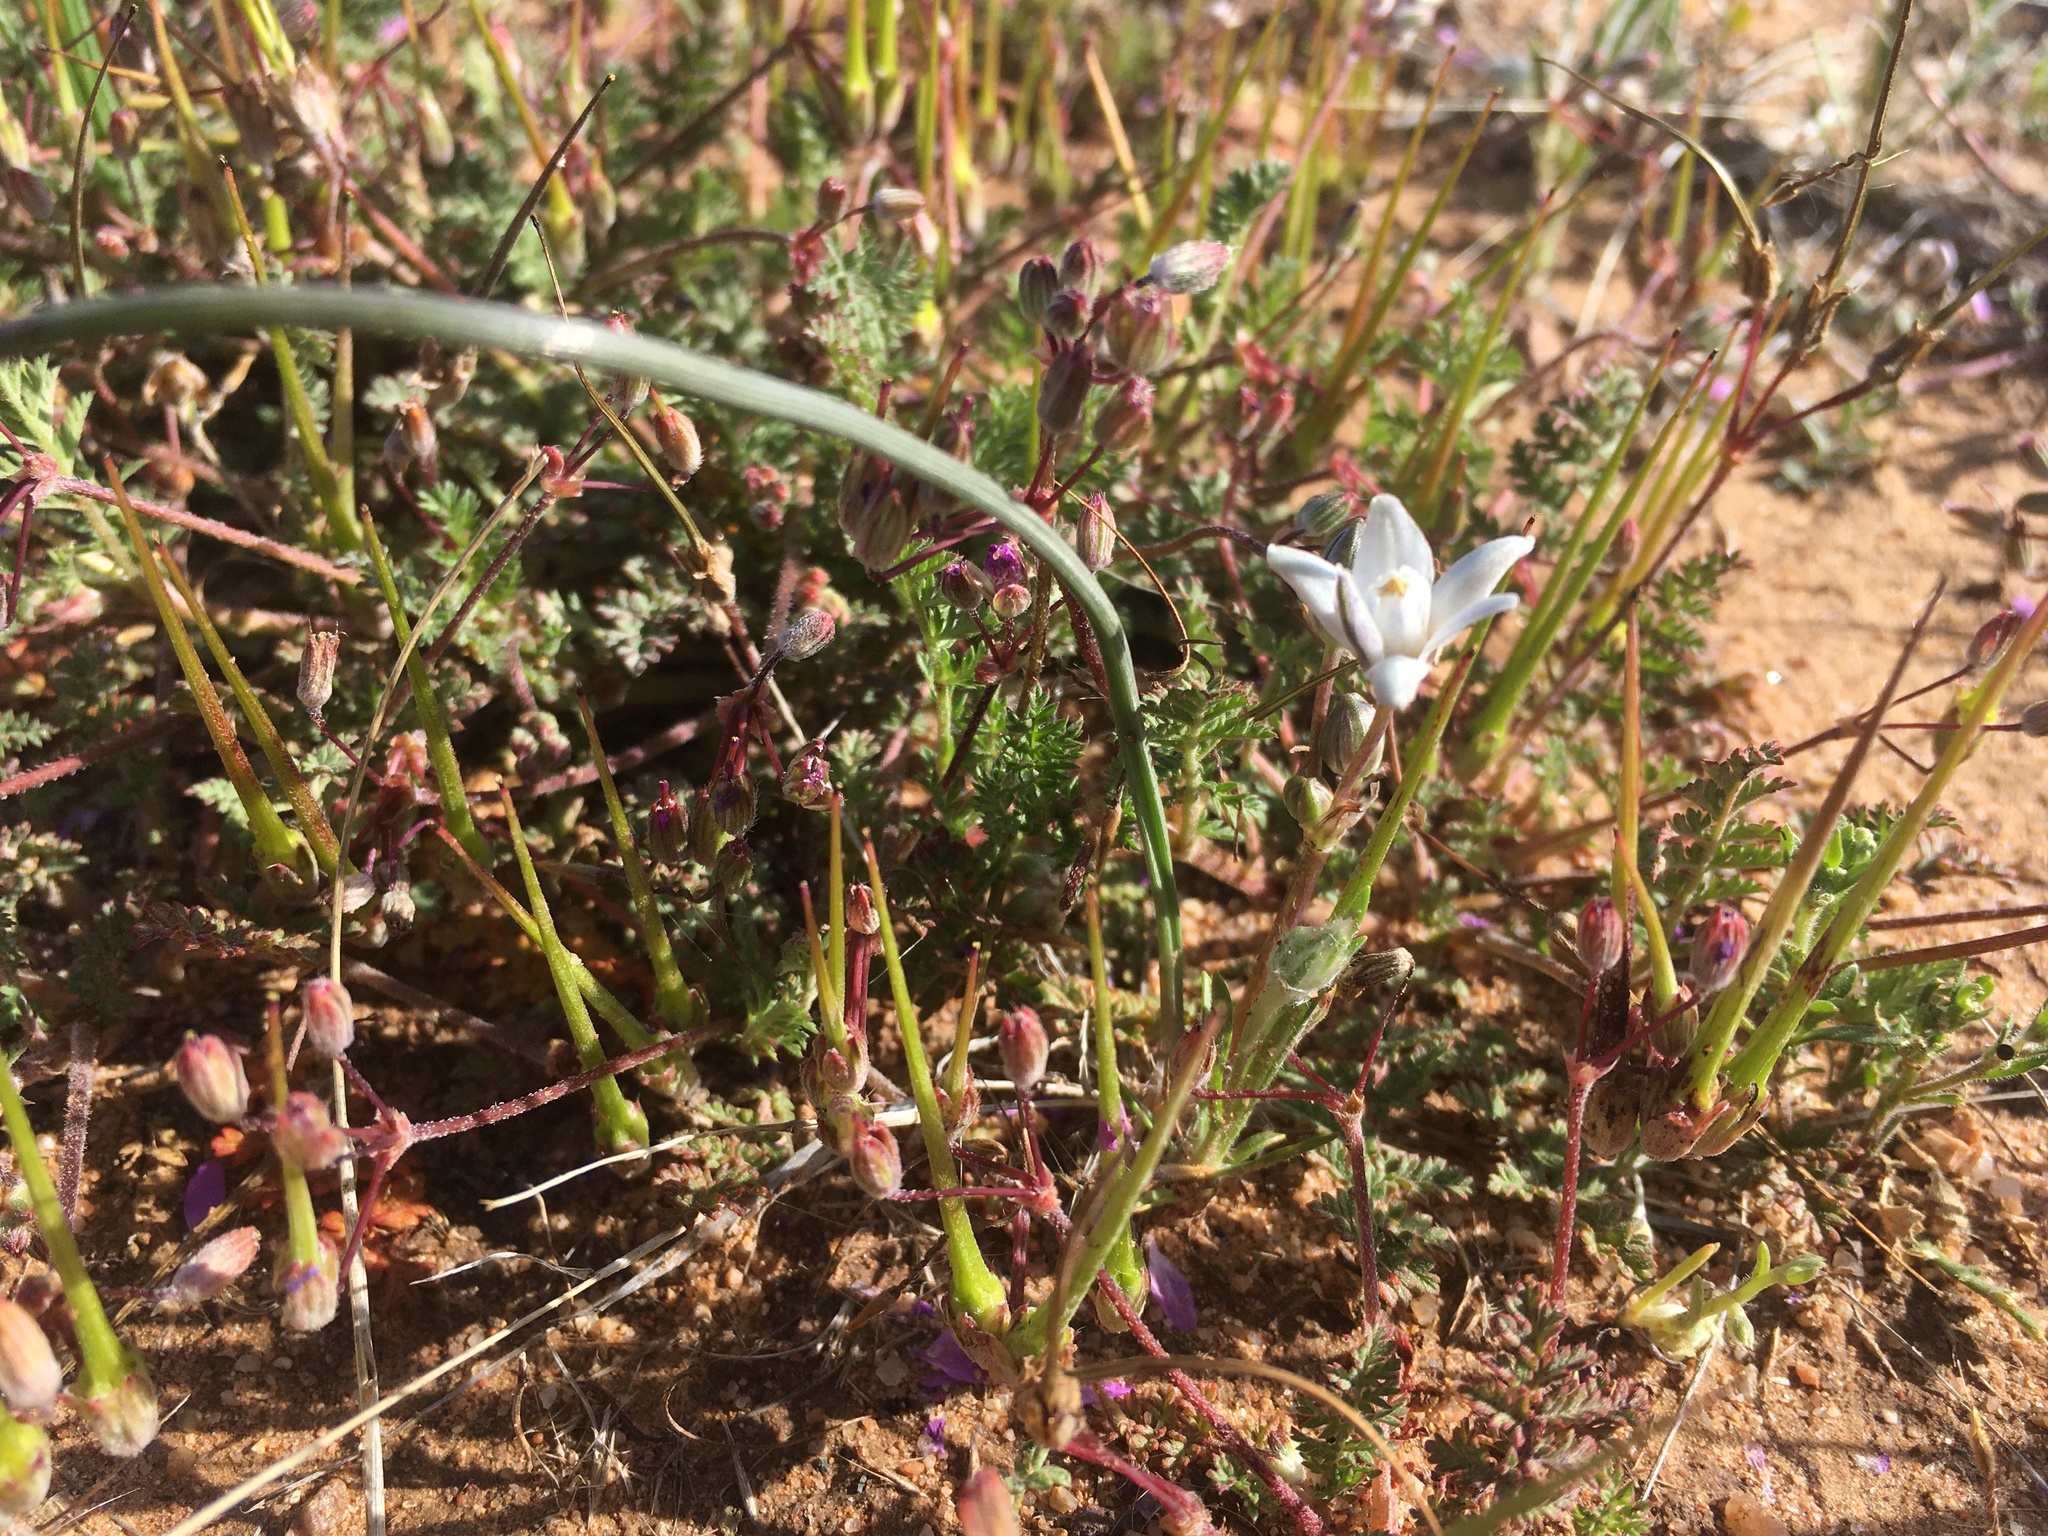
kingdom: Plantae
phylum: Tracheophyta
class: Liliopsida
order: Asparagales
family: Asparagaceae
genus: Muilla
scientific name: Muilla lordsburgana
